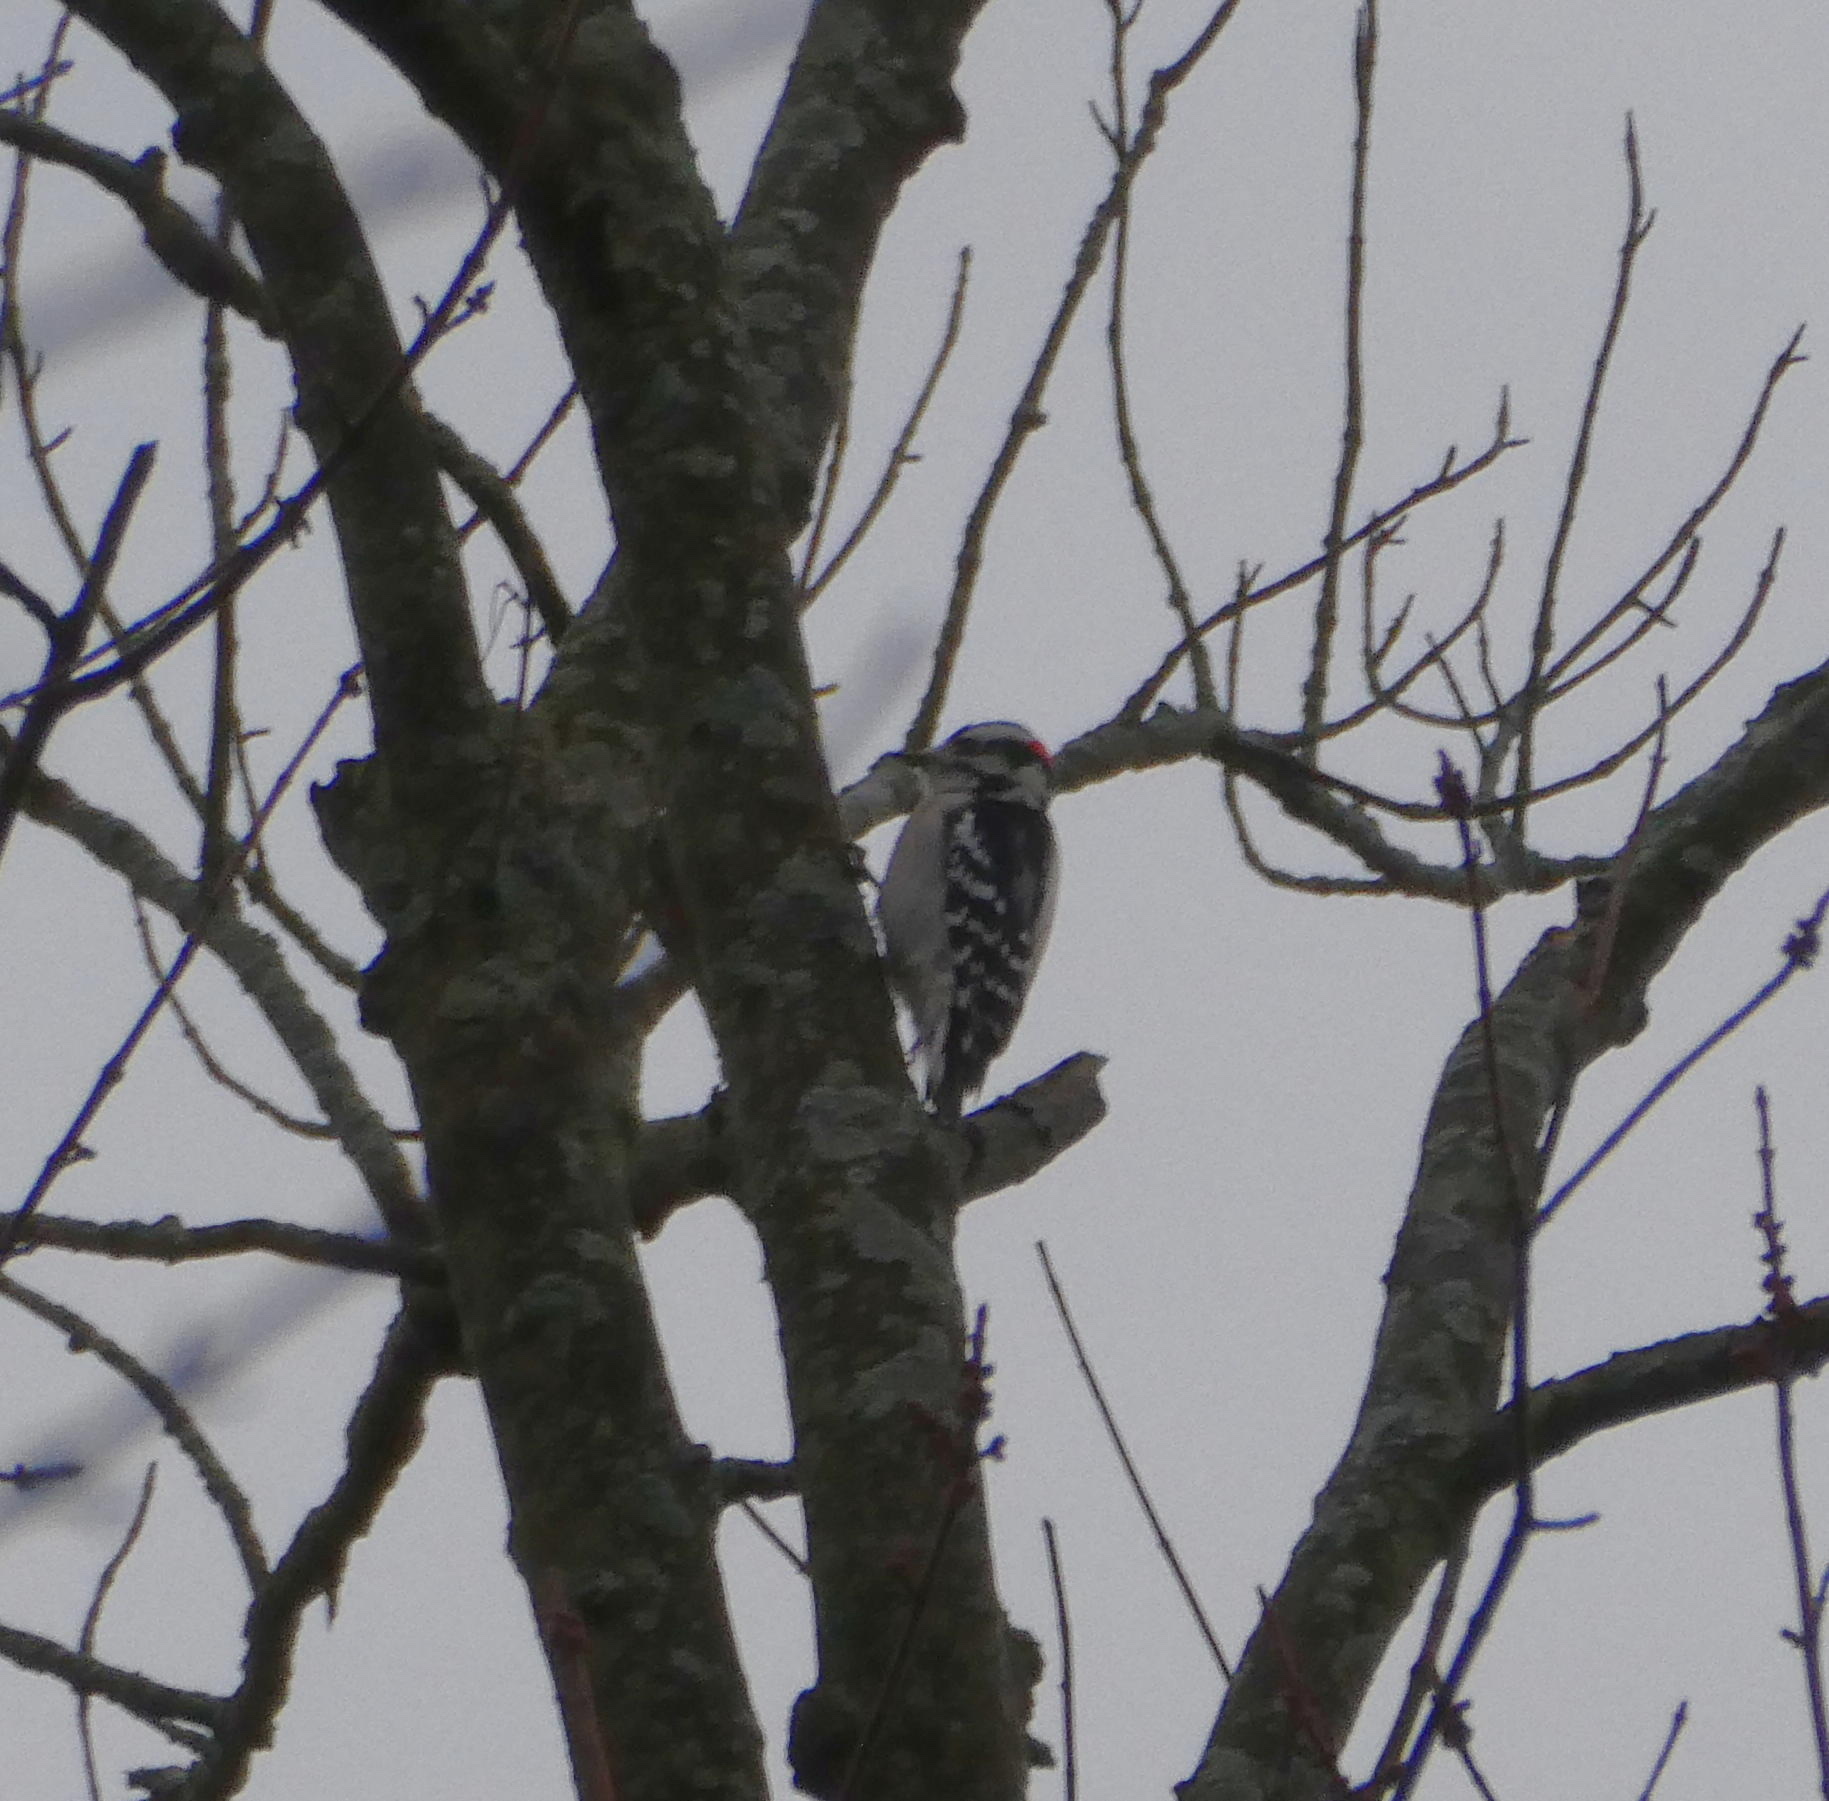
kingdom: Animalia
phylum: Chordata
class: Aves
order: Piciformes
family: Picidae
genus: Dryobates
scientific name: Dryobates pubescens
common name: Downy woodpecker
